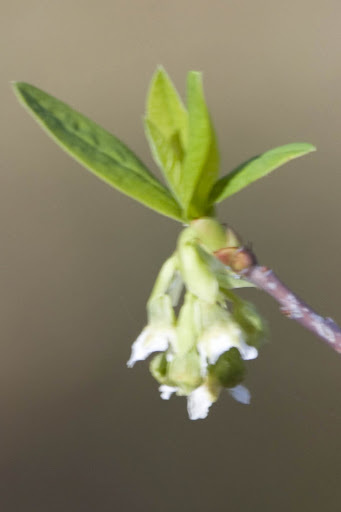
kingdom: Plantae
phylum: Tracheophyta
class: Magnoliopsida
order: Rosales
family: Rosaceae
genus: Oemleria
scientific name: Oemleria cerasiformis
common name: Osoberry
